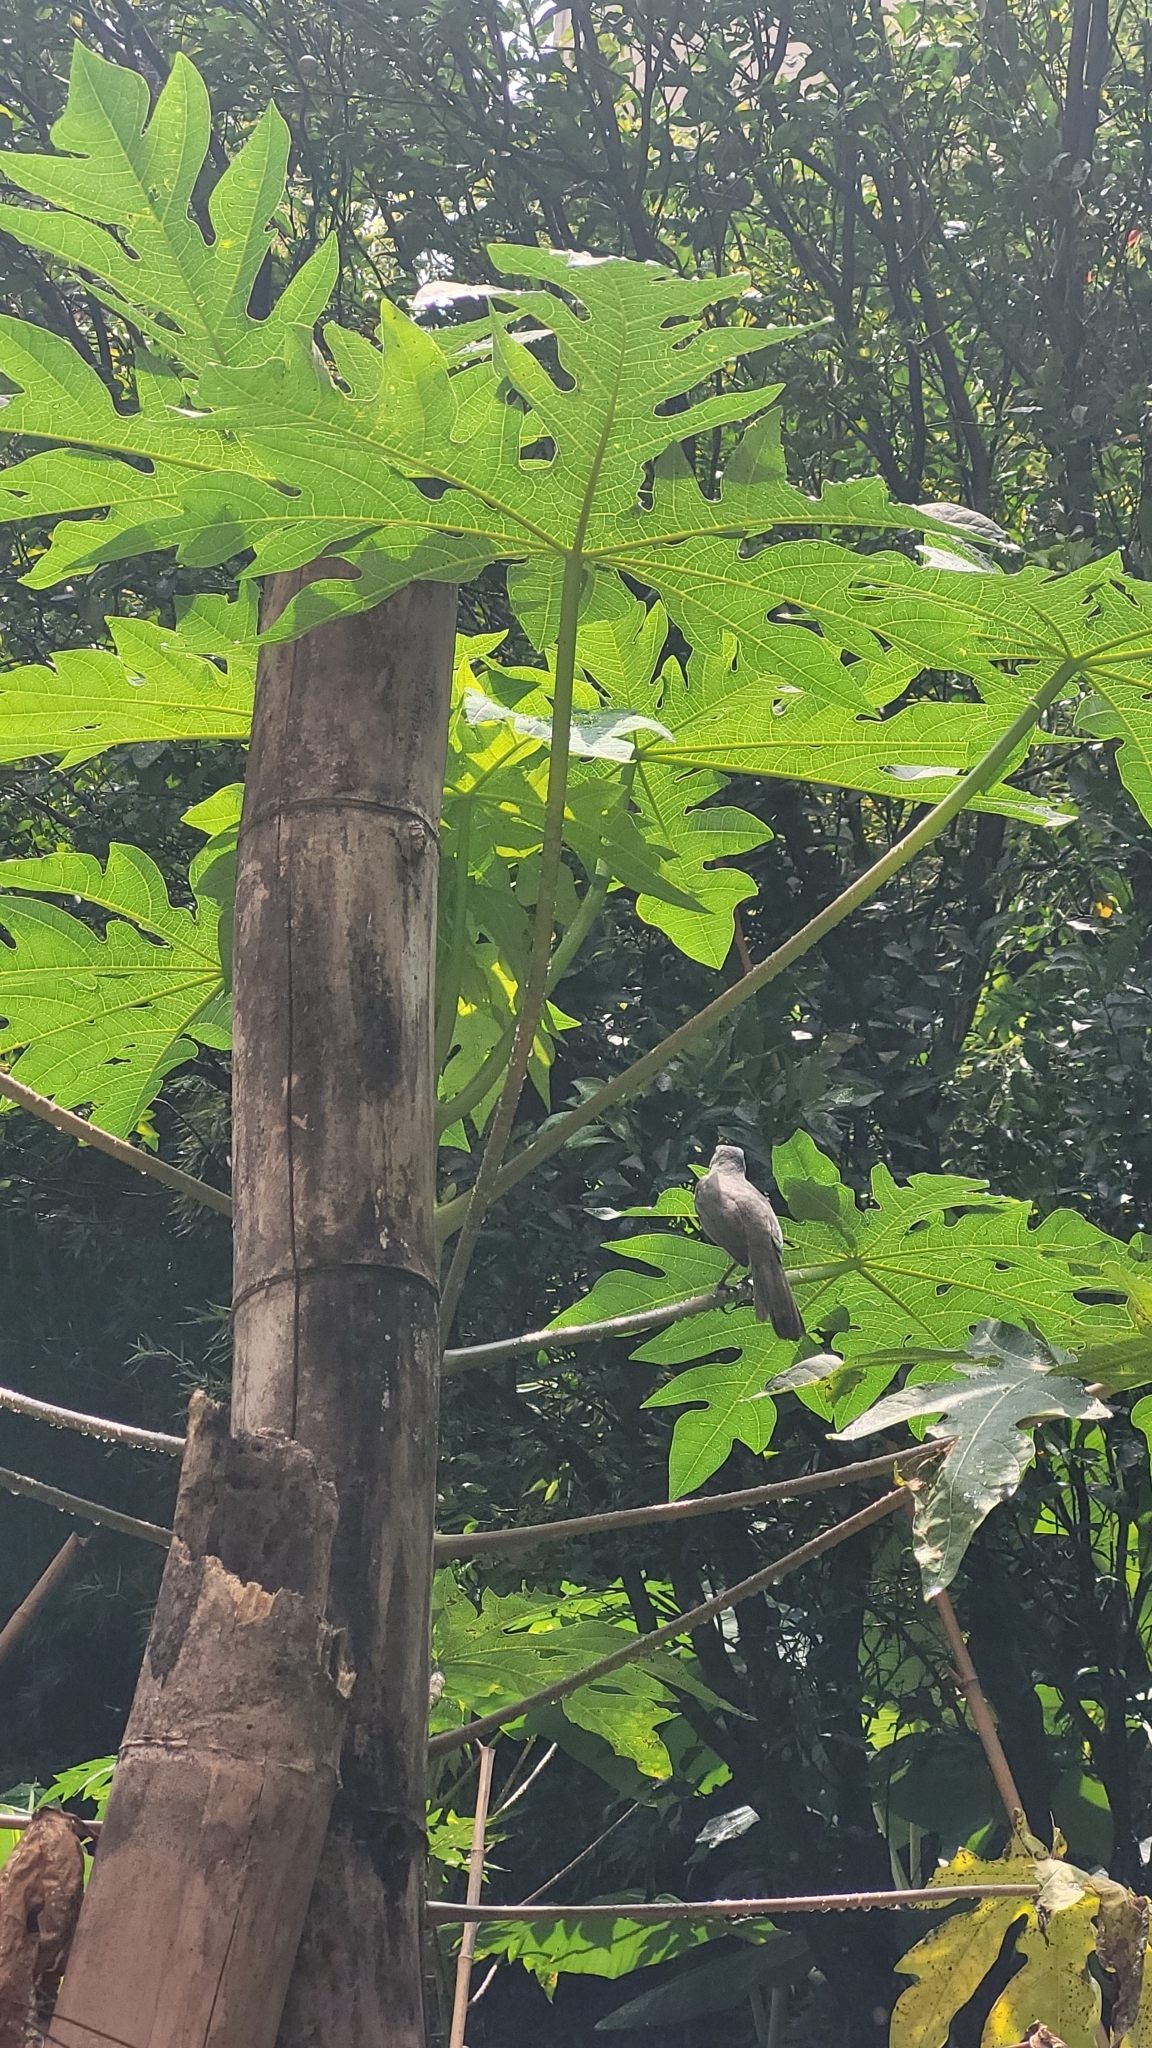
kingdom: Animalia
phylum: Chordata
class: Aves
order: Passeriformes
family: Thraupidae
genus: Saltator
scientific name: Saltator olivascens
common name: Caribbean grey saltator
